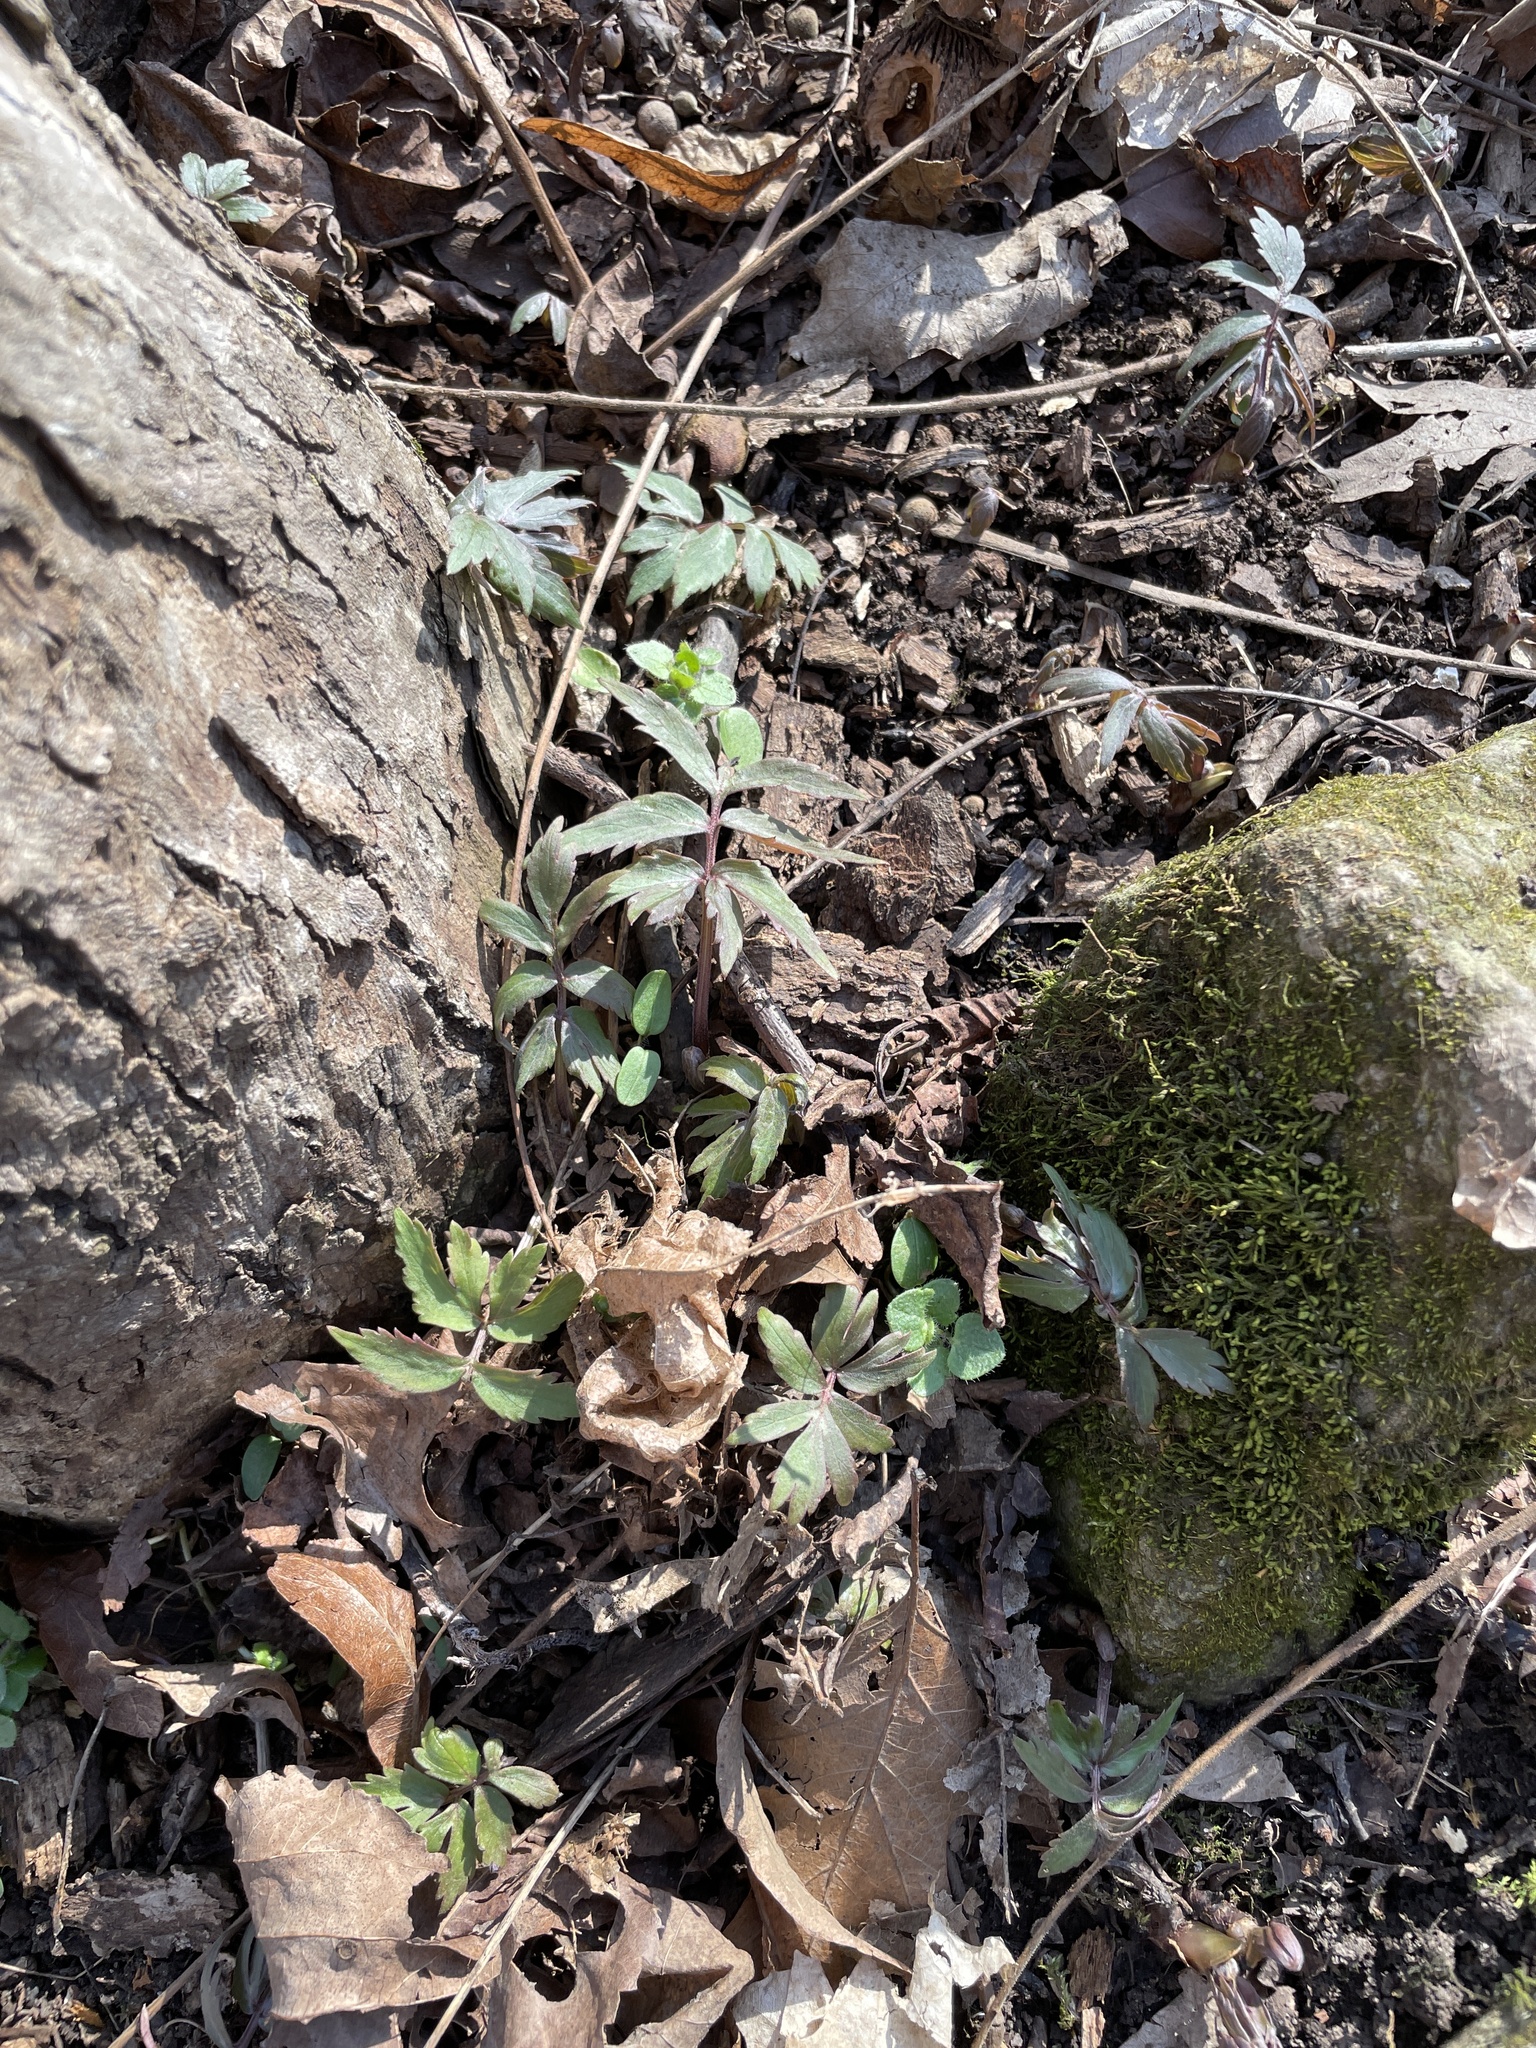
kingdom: Plantae
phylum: Tracheophyta
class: Magnoliopsida
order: Boraginales
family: Hydrophyllaceae
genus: Hydrophyllum
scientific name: Hydrophyllum virginianum
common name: Virginia waterleaf
